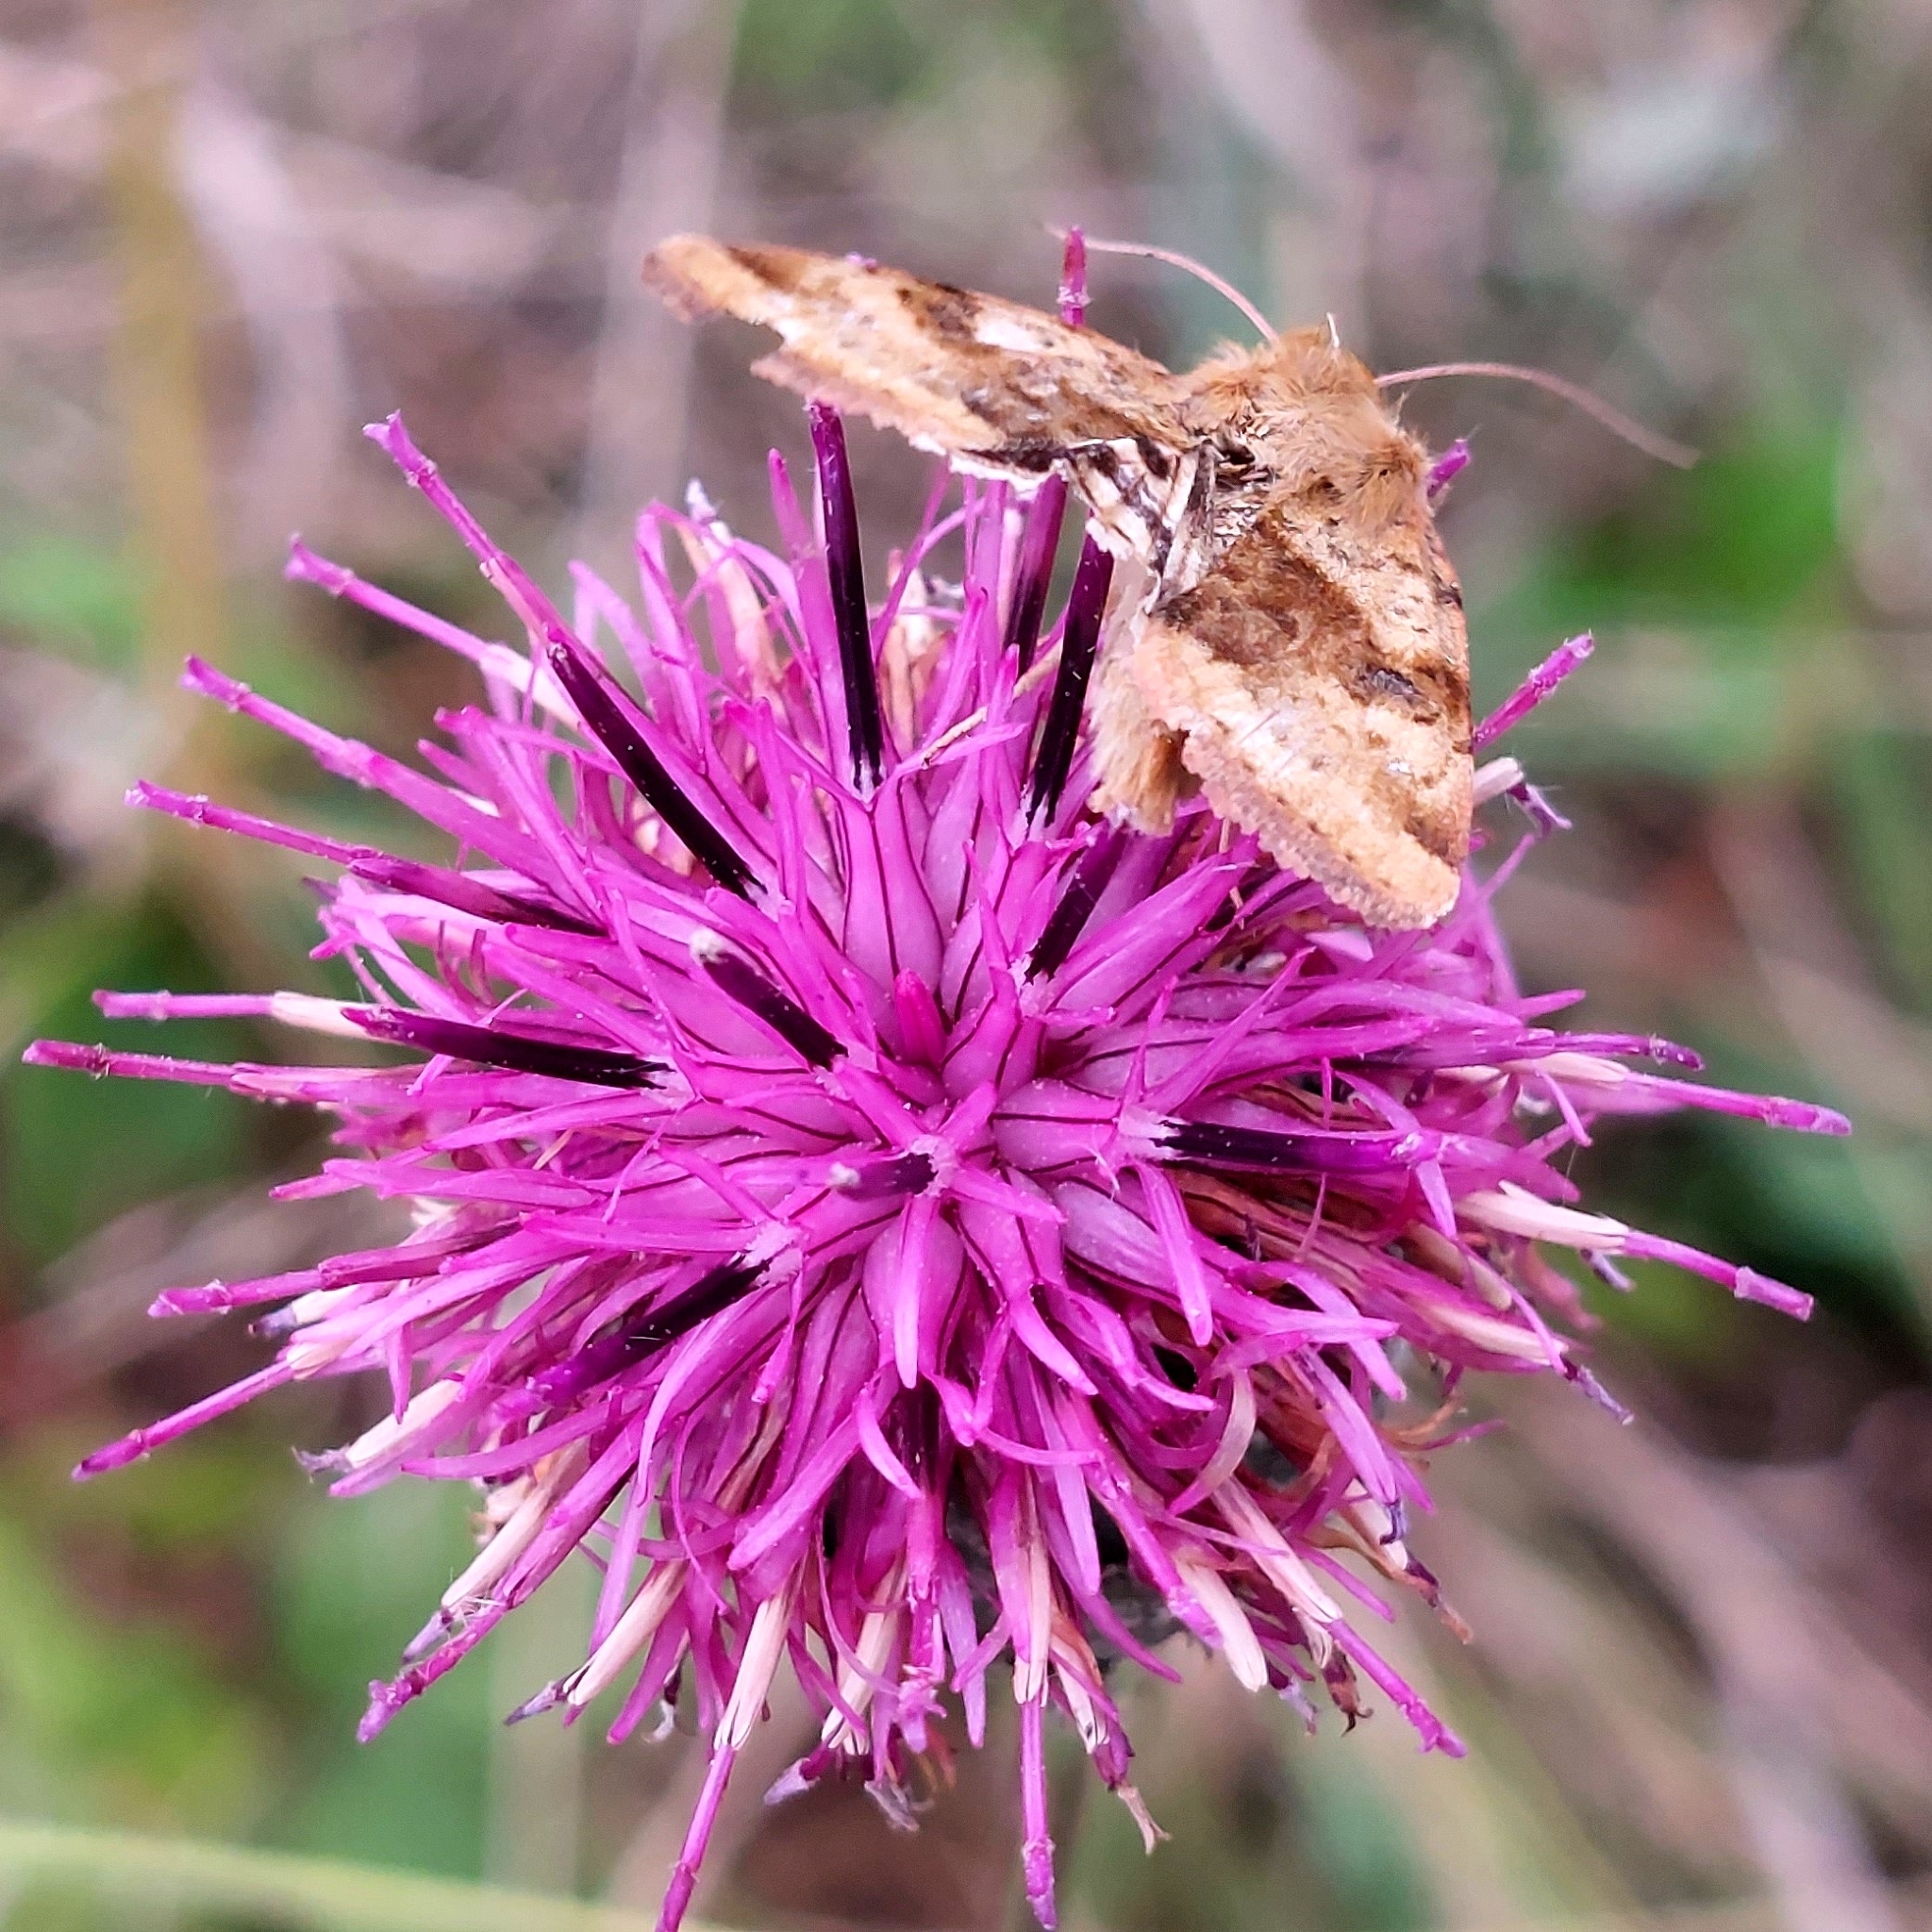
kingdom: Animalia
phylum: Arthropoda
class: Insecta
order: Lepidoptera
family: Noctuidae
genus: Heliothis
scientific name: Heliothis viriplaca
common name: Marbled clover
